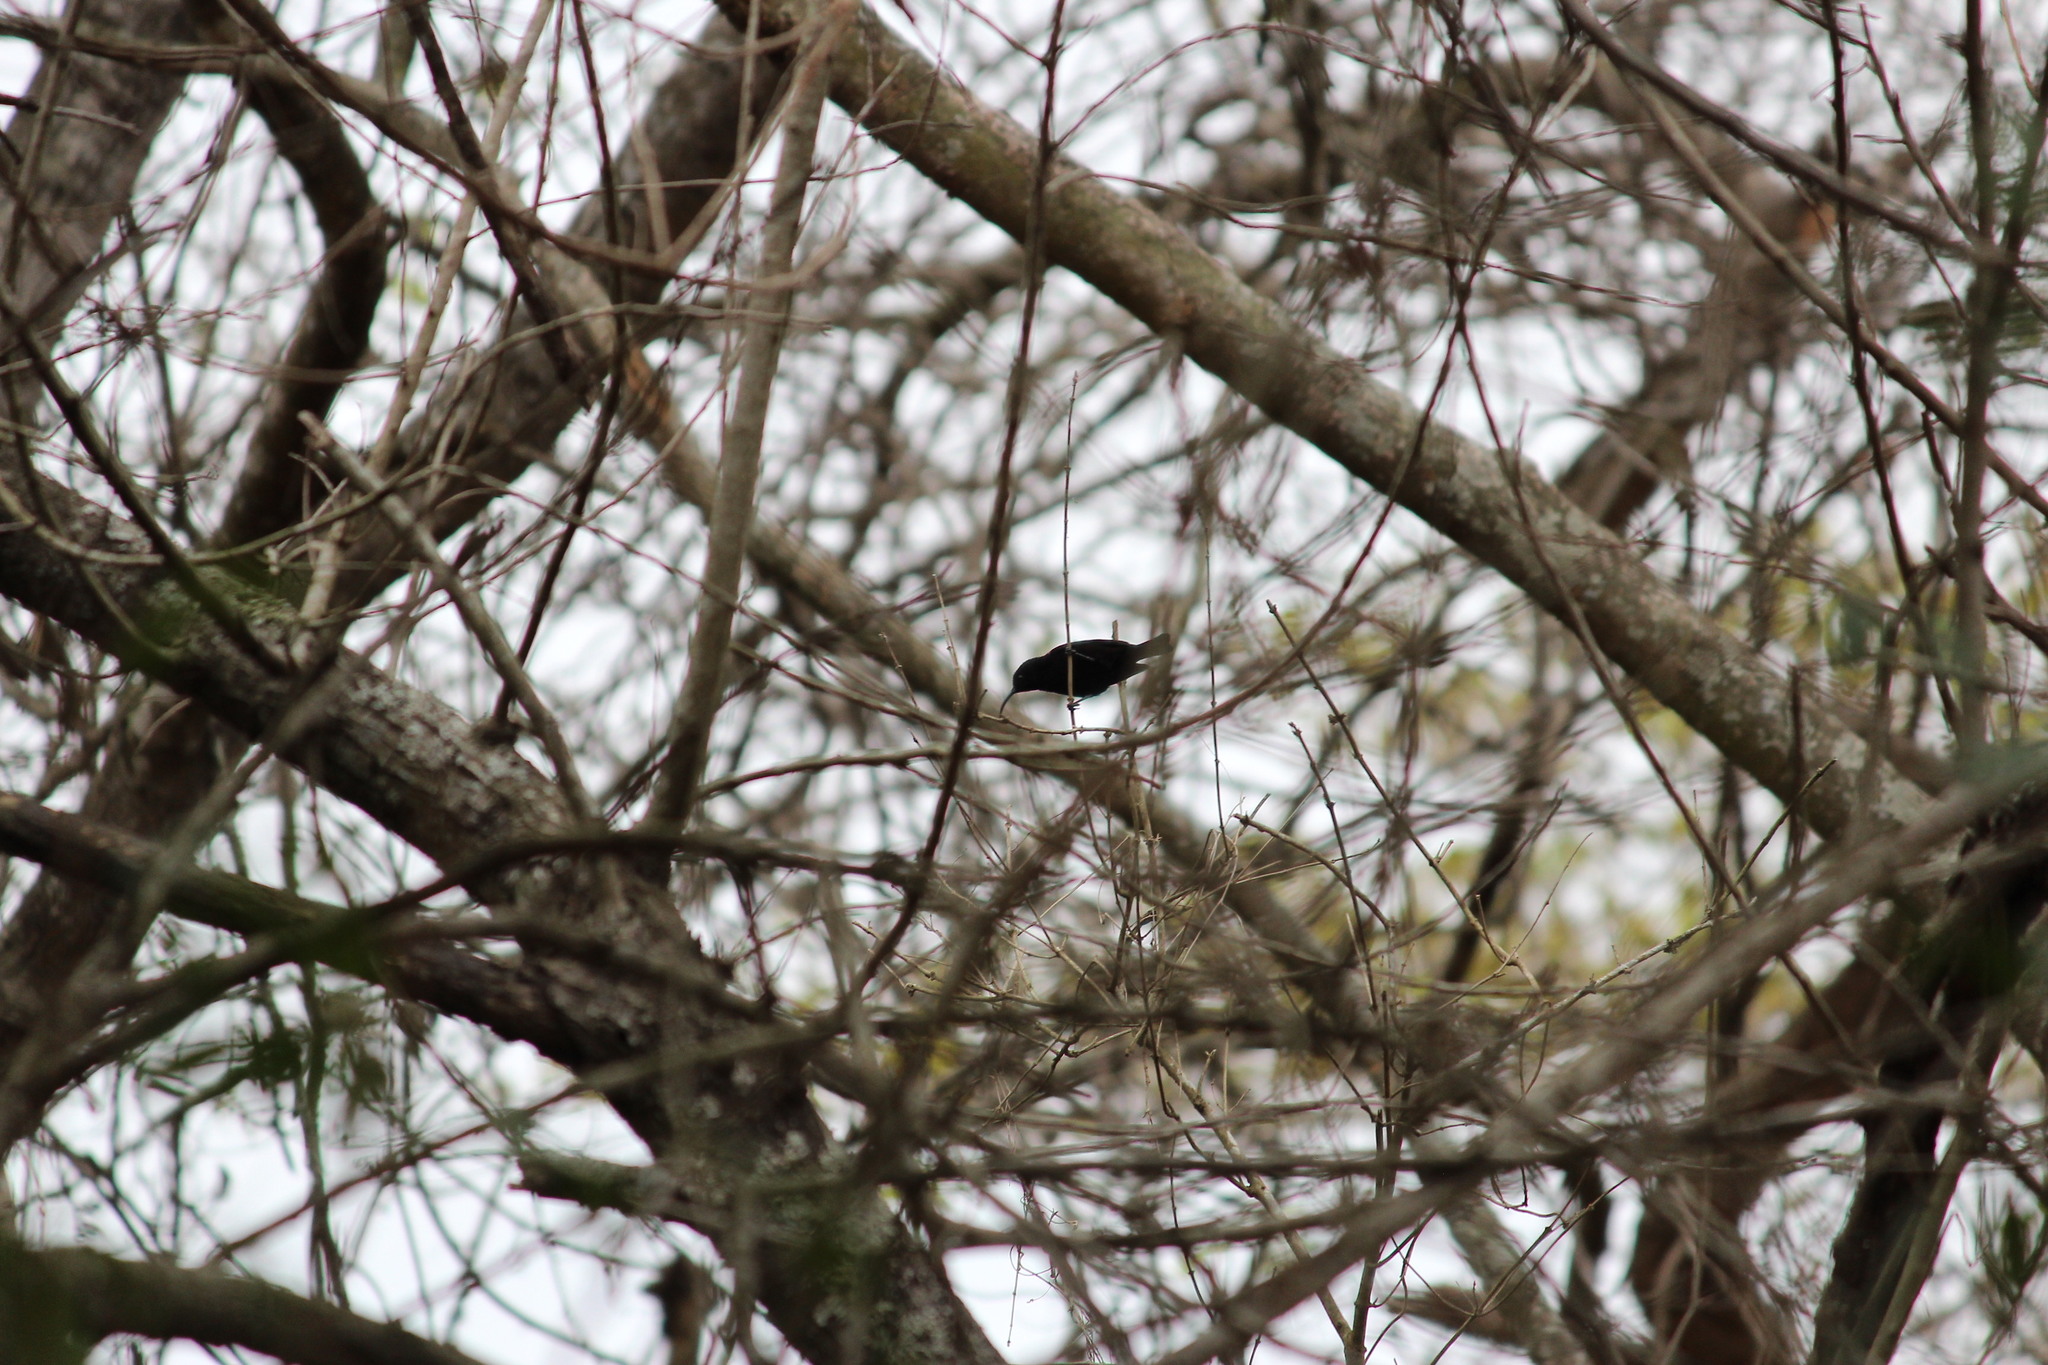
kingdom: Animalia
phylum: Chordata
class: Aves
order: Passeriformes
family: Nectariniidae
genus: Chalcomitra
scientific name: Chalcomitra amethystina
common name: Amethyst sunbird
